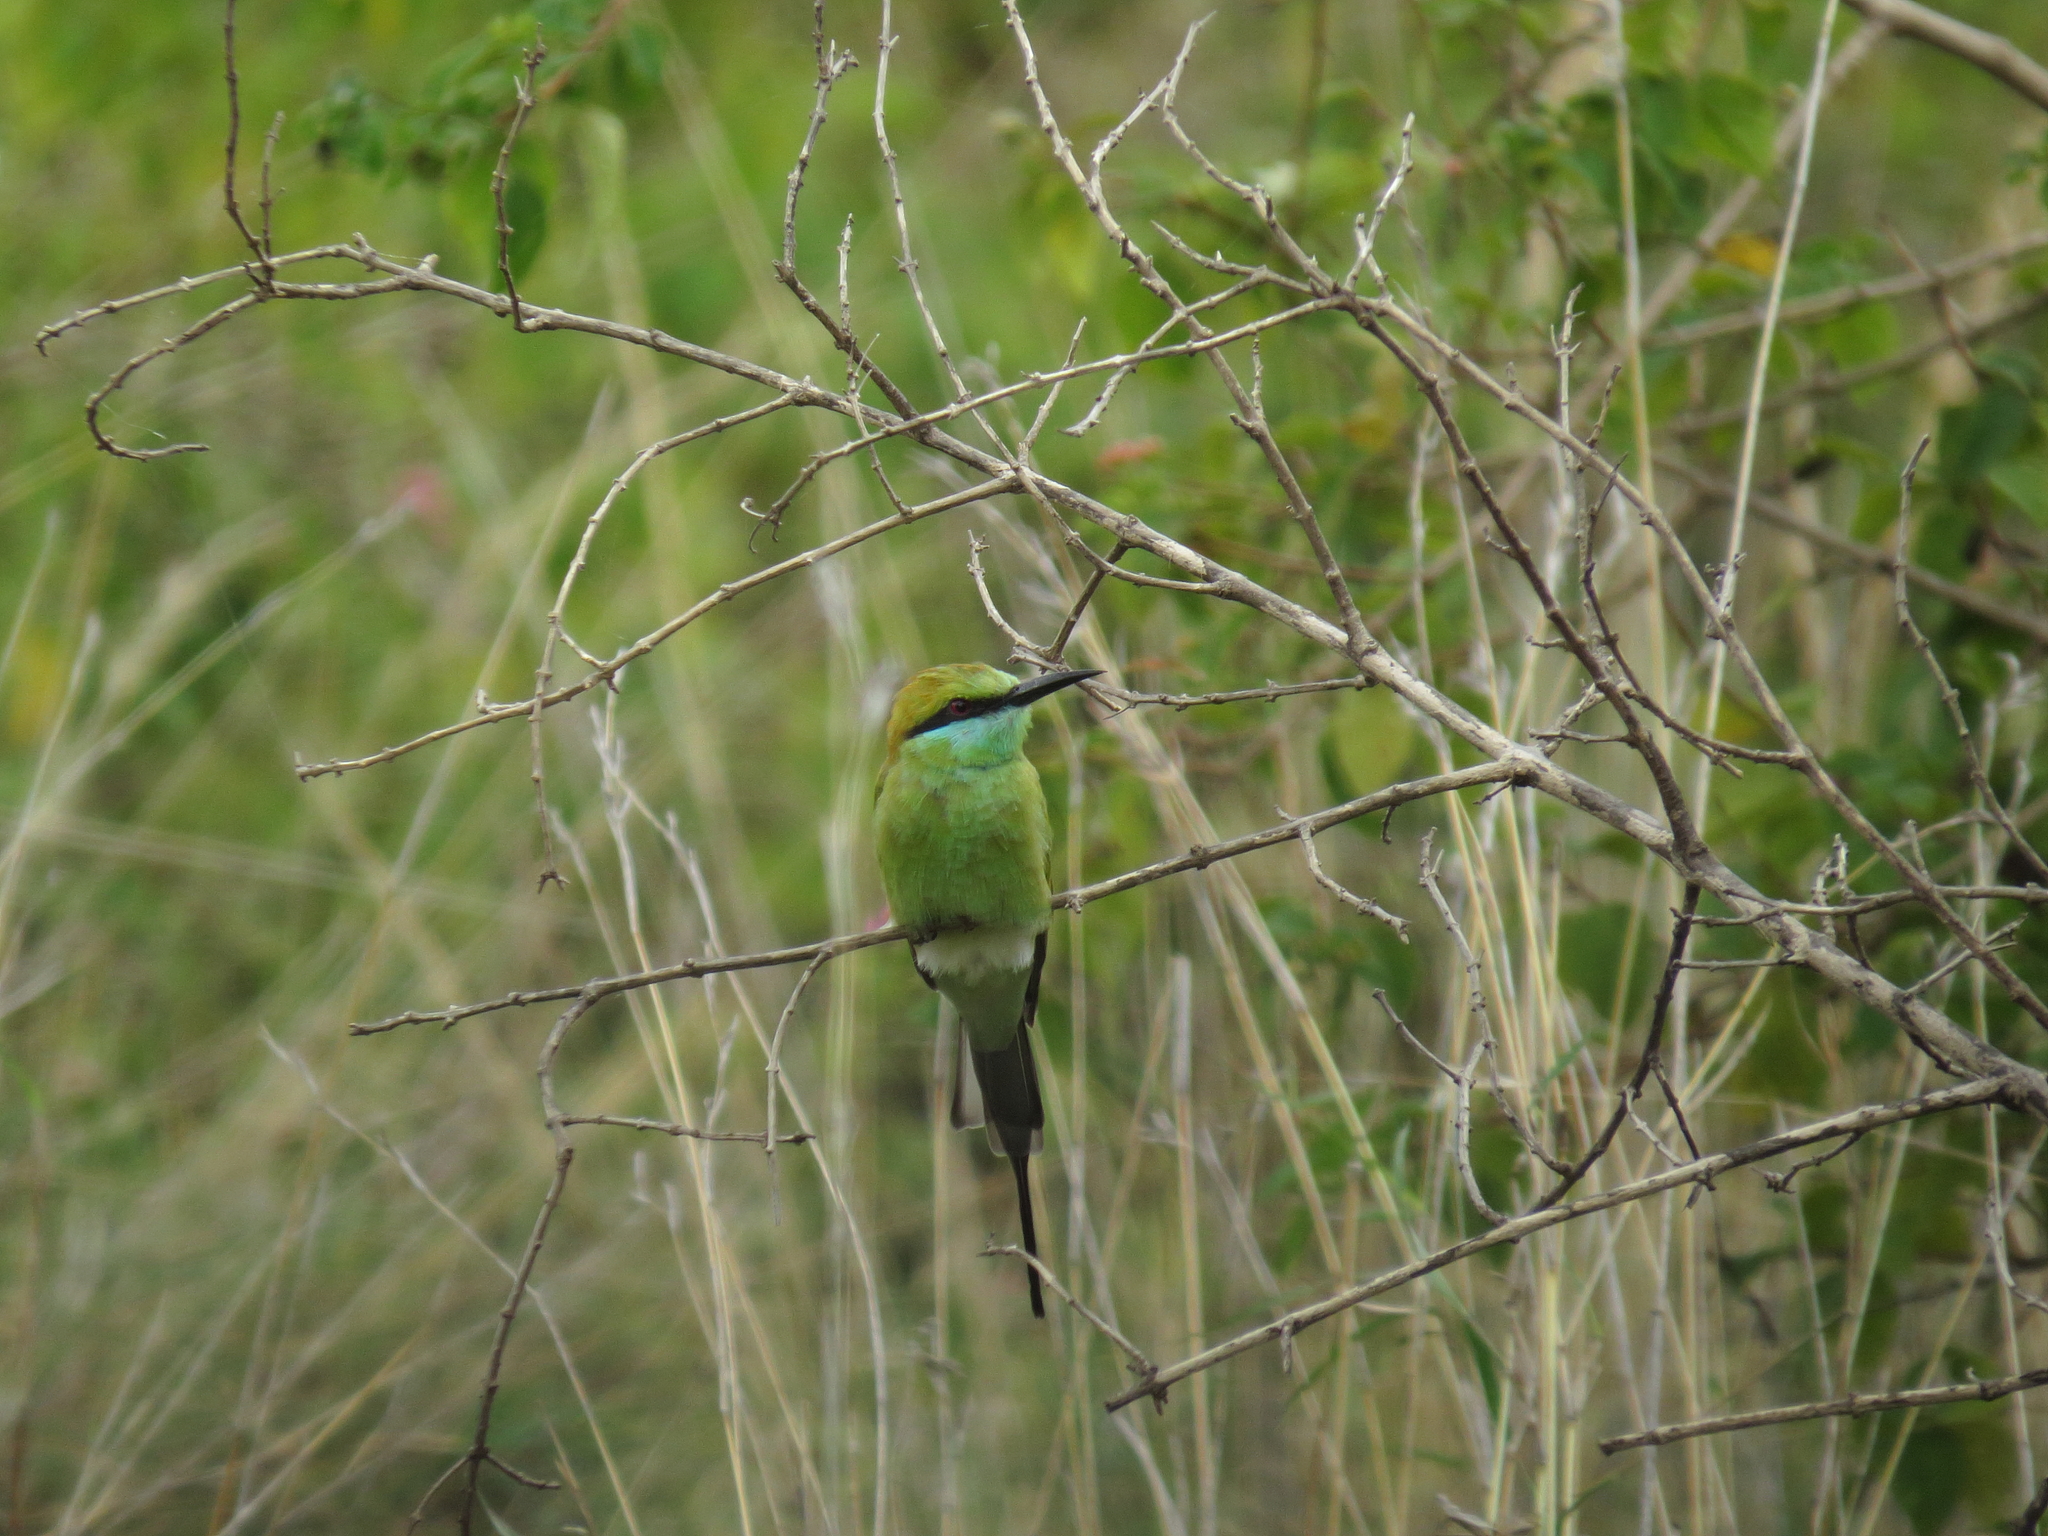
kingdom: Animalia
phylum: Chordata
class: Aves
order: Coraciiformes
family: Meropidae
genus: Merops
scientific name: Merops orientalis
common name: Green bee-eater
